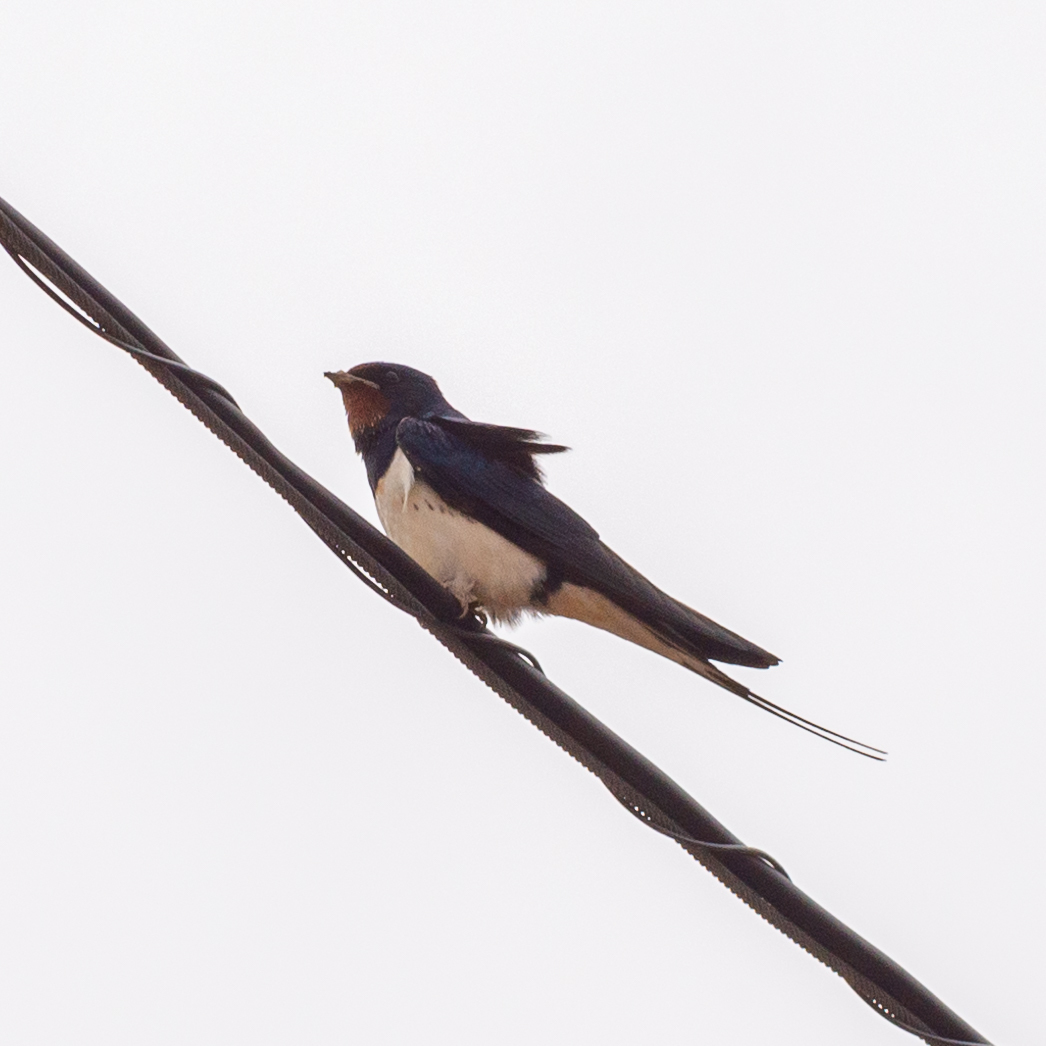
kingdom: Animalia
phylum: Chordata
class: Aves
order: Passeriformes
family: Hirundinidae
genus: Hirundo
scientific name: Hirundo rustica
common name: Barn swallow
